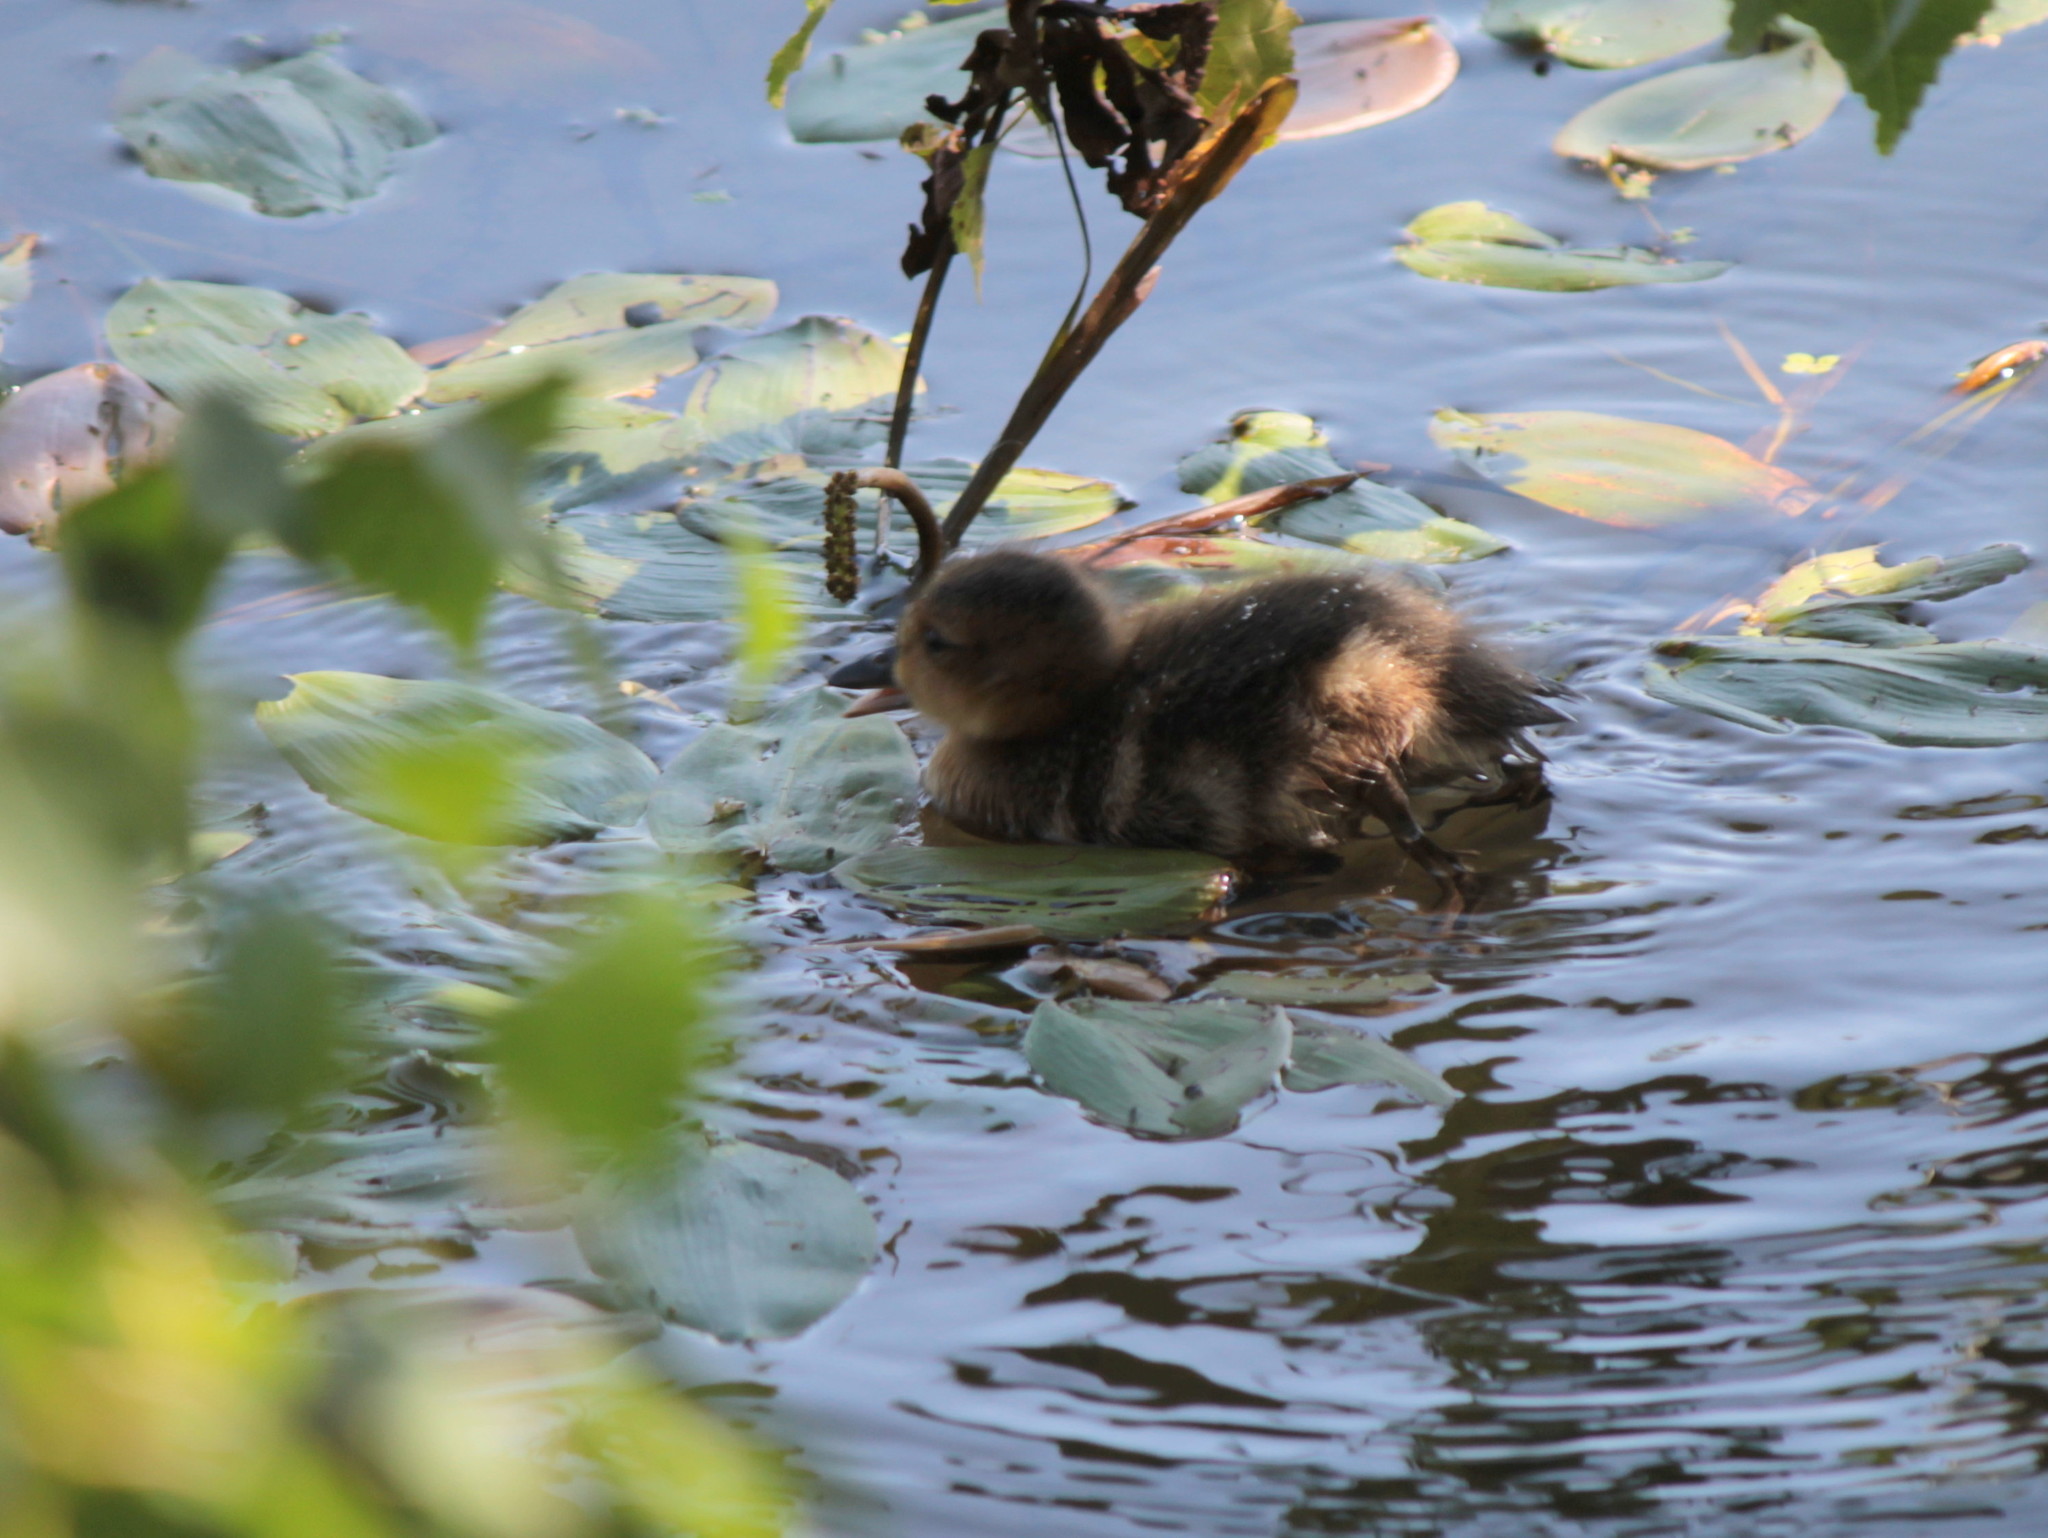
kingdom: Animalia
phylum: Chordata
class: Aves
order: Anseriformes
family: Anatidae
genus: Mareca
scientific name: Mareca americana
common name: American wigeon
